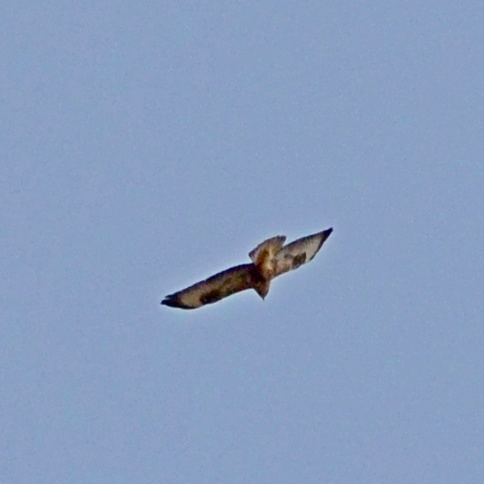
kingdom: Animalia
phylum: Chordata
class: Aves
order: Accipitriformes
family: Accipitridae
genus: Buteo
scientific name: Buteo buteo
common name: Common buzzard
